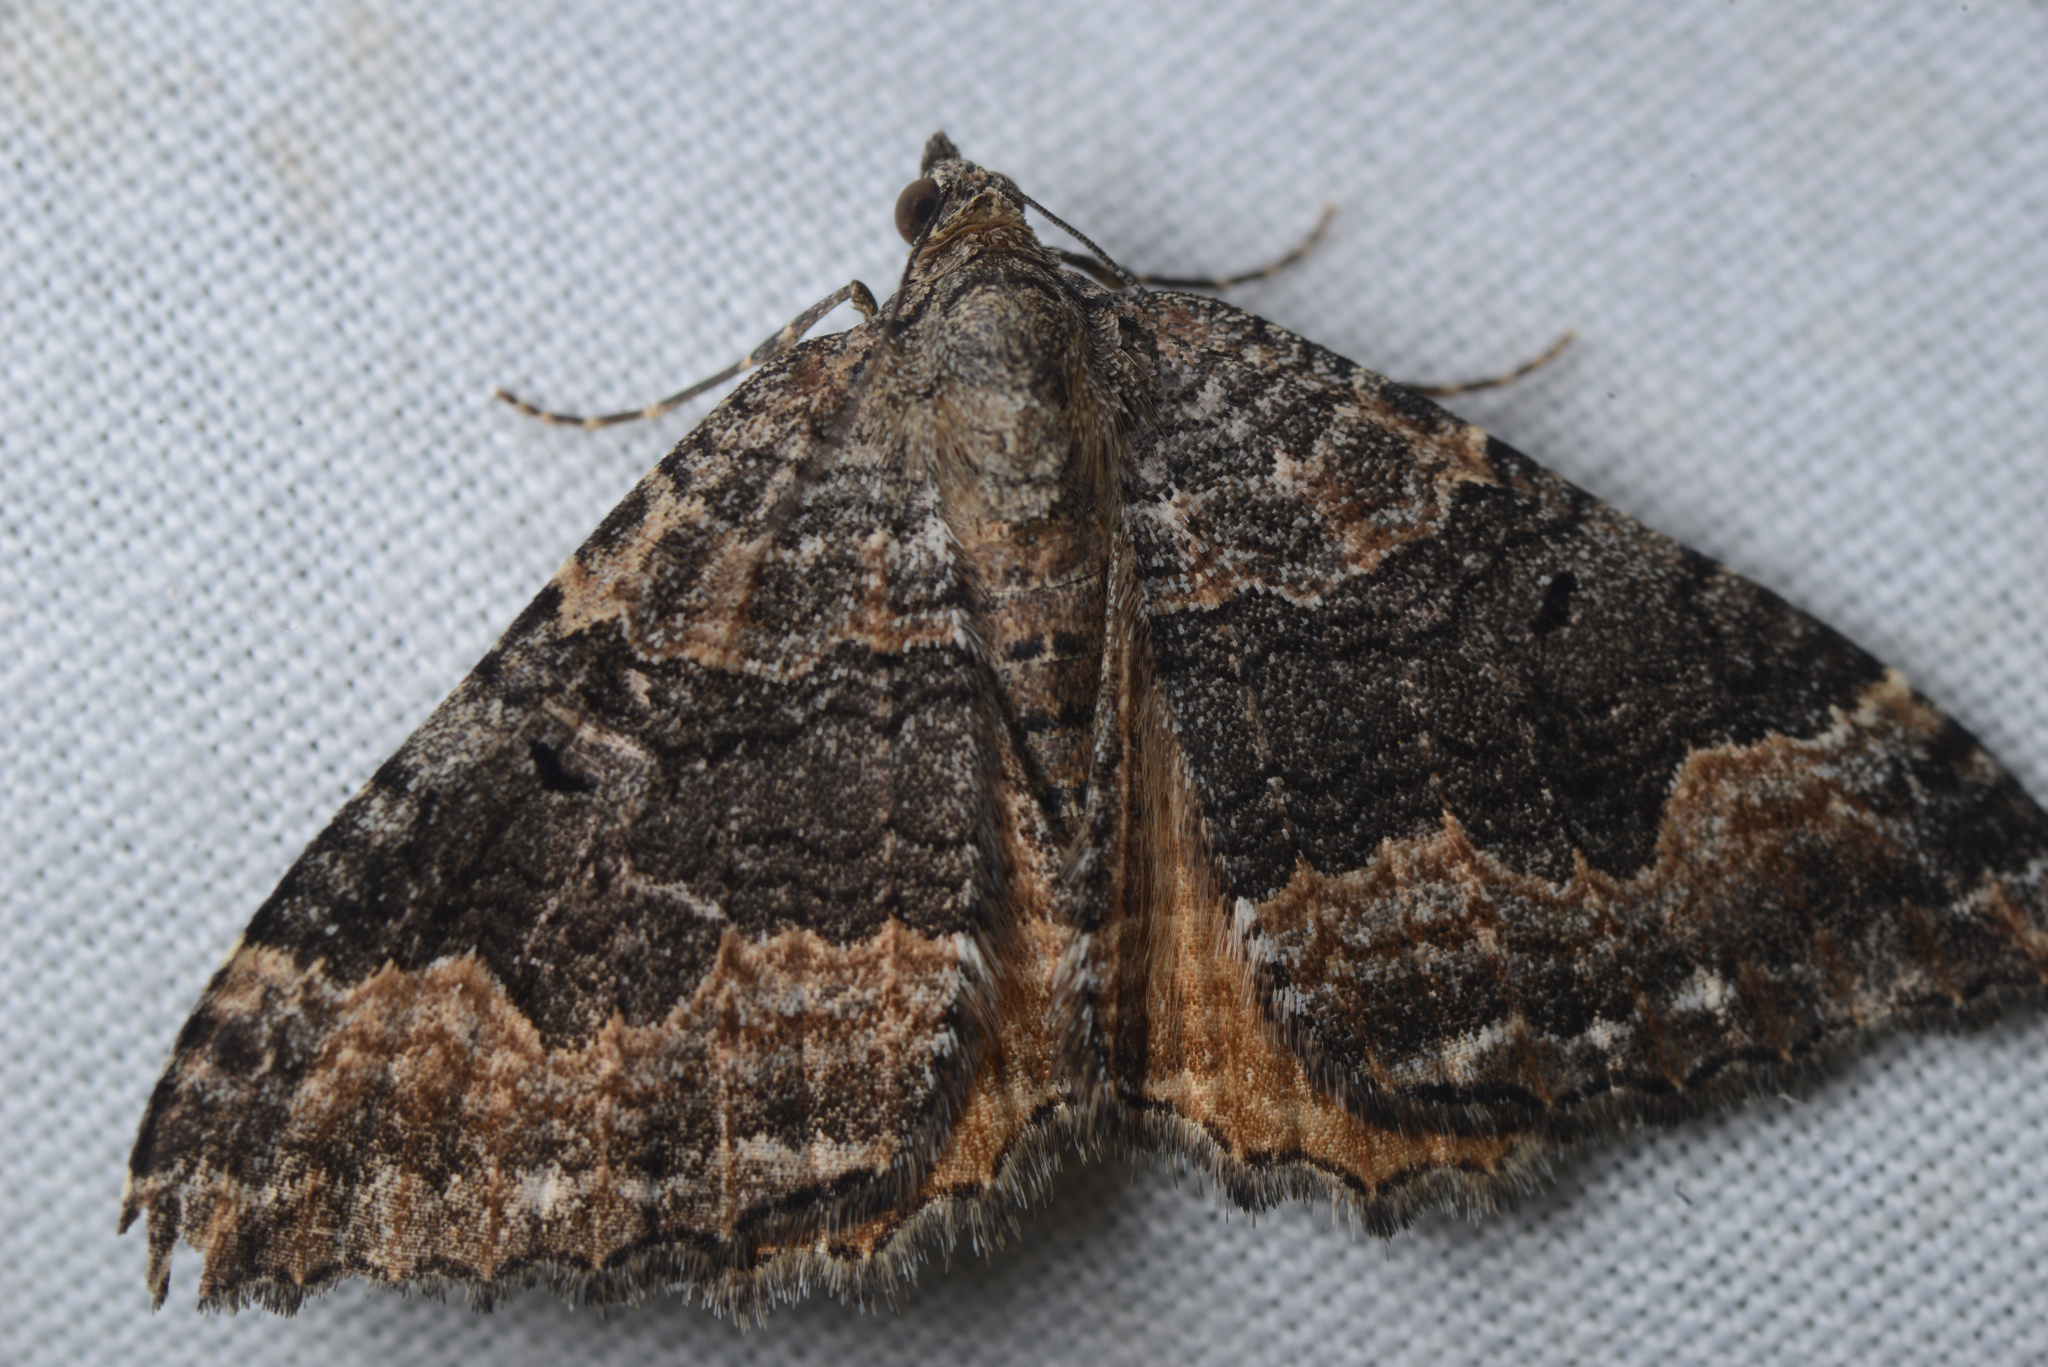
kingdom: Animalia
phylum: Arthropoda
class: Insecta
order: Lepidoptera
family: Geometridae
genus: Hydriomena
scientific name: Hydriomena deltoidata
